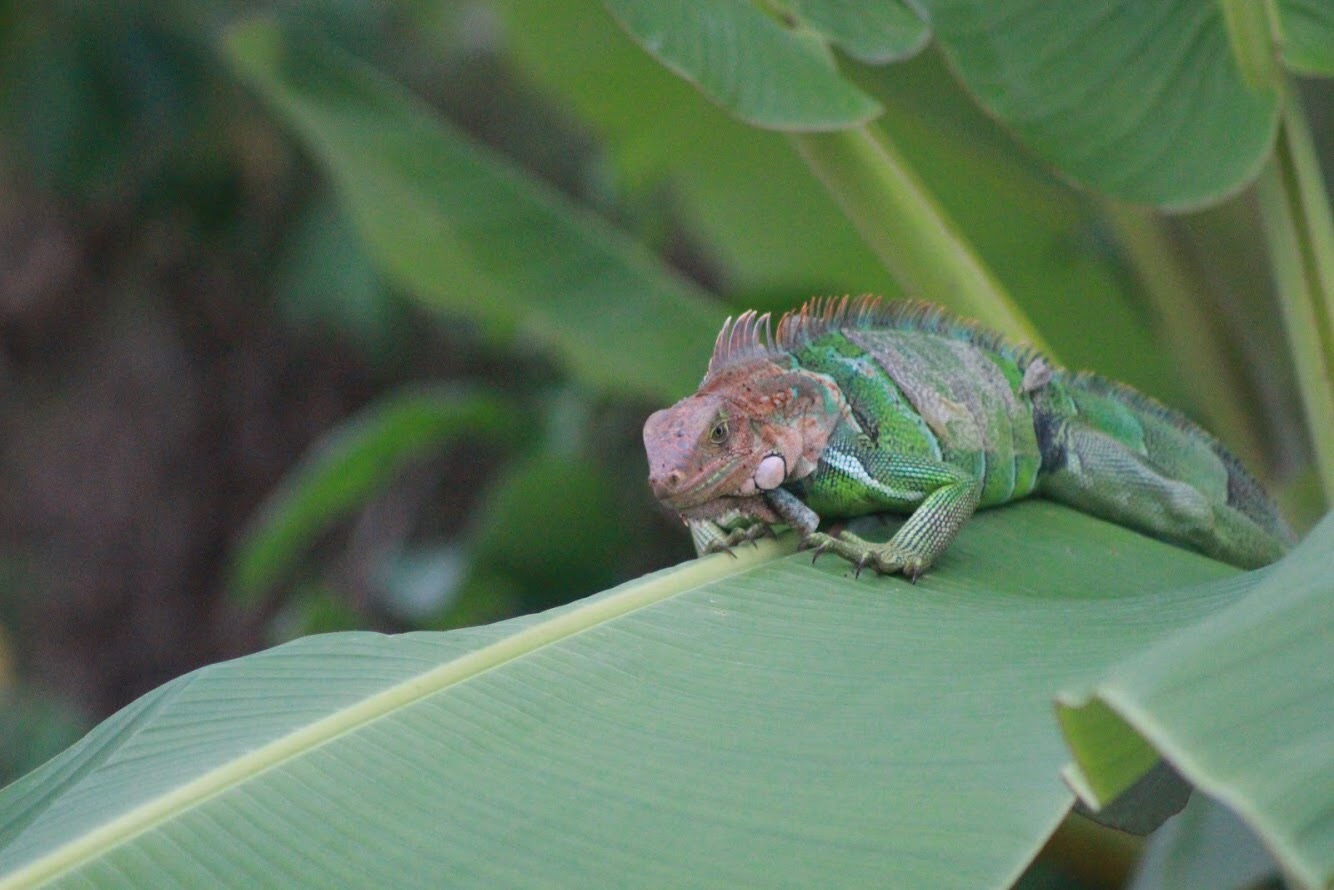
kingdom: Animalia
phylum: Chordata
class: Squamata
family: Iguanidae
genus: Iguana
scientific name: Iguana iguana
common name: Green iguana
